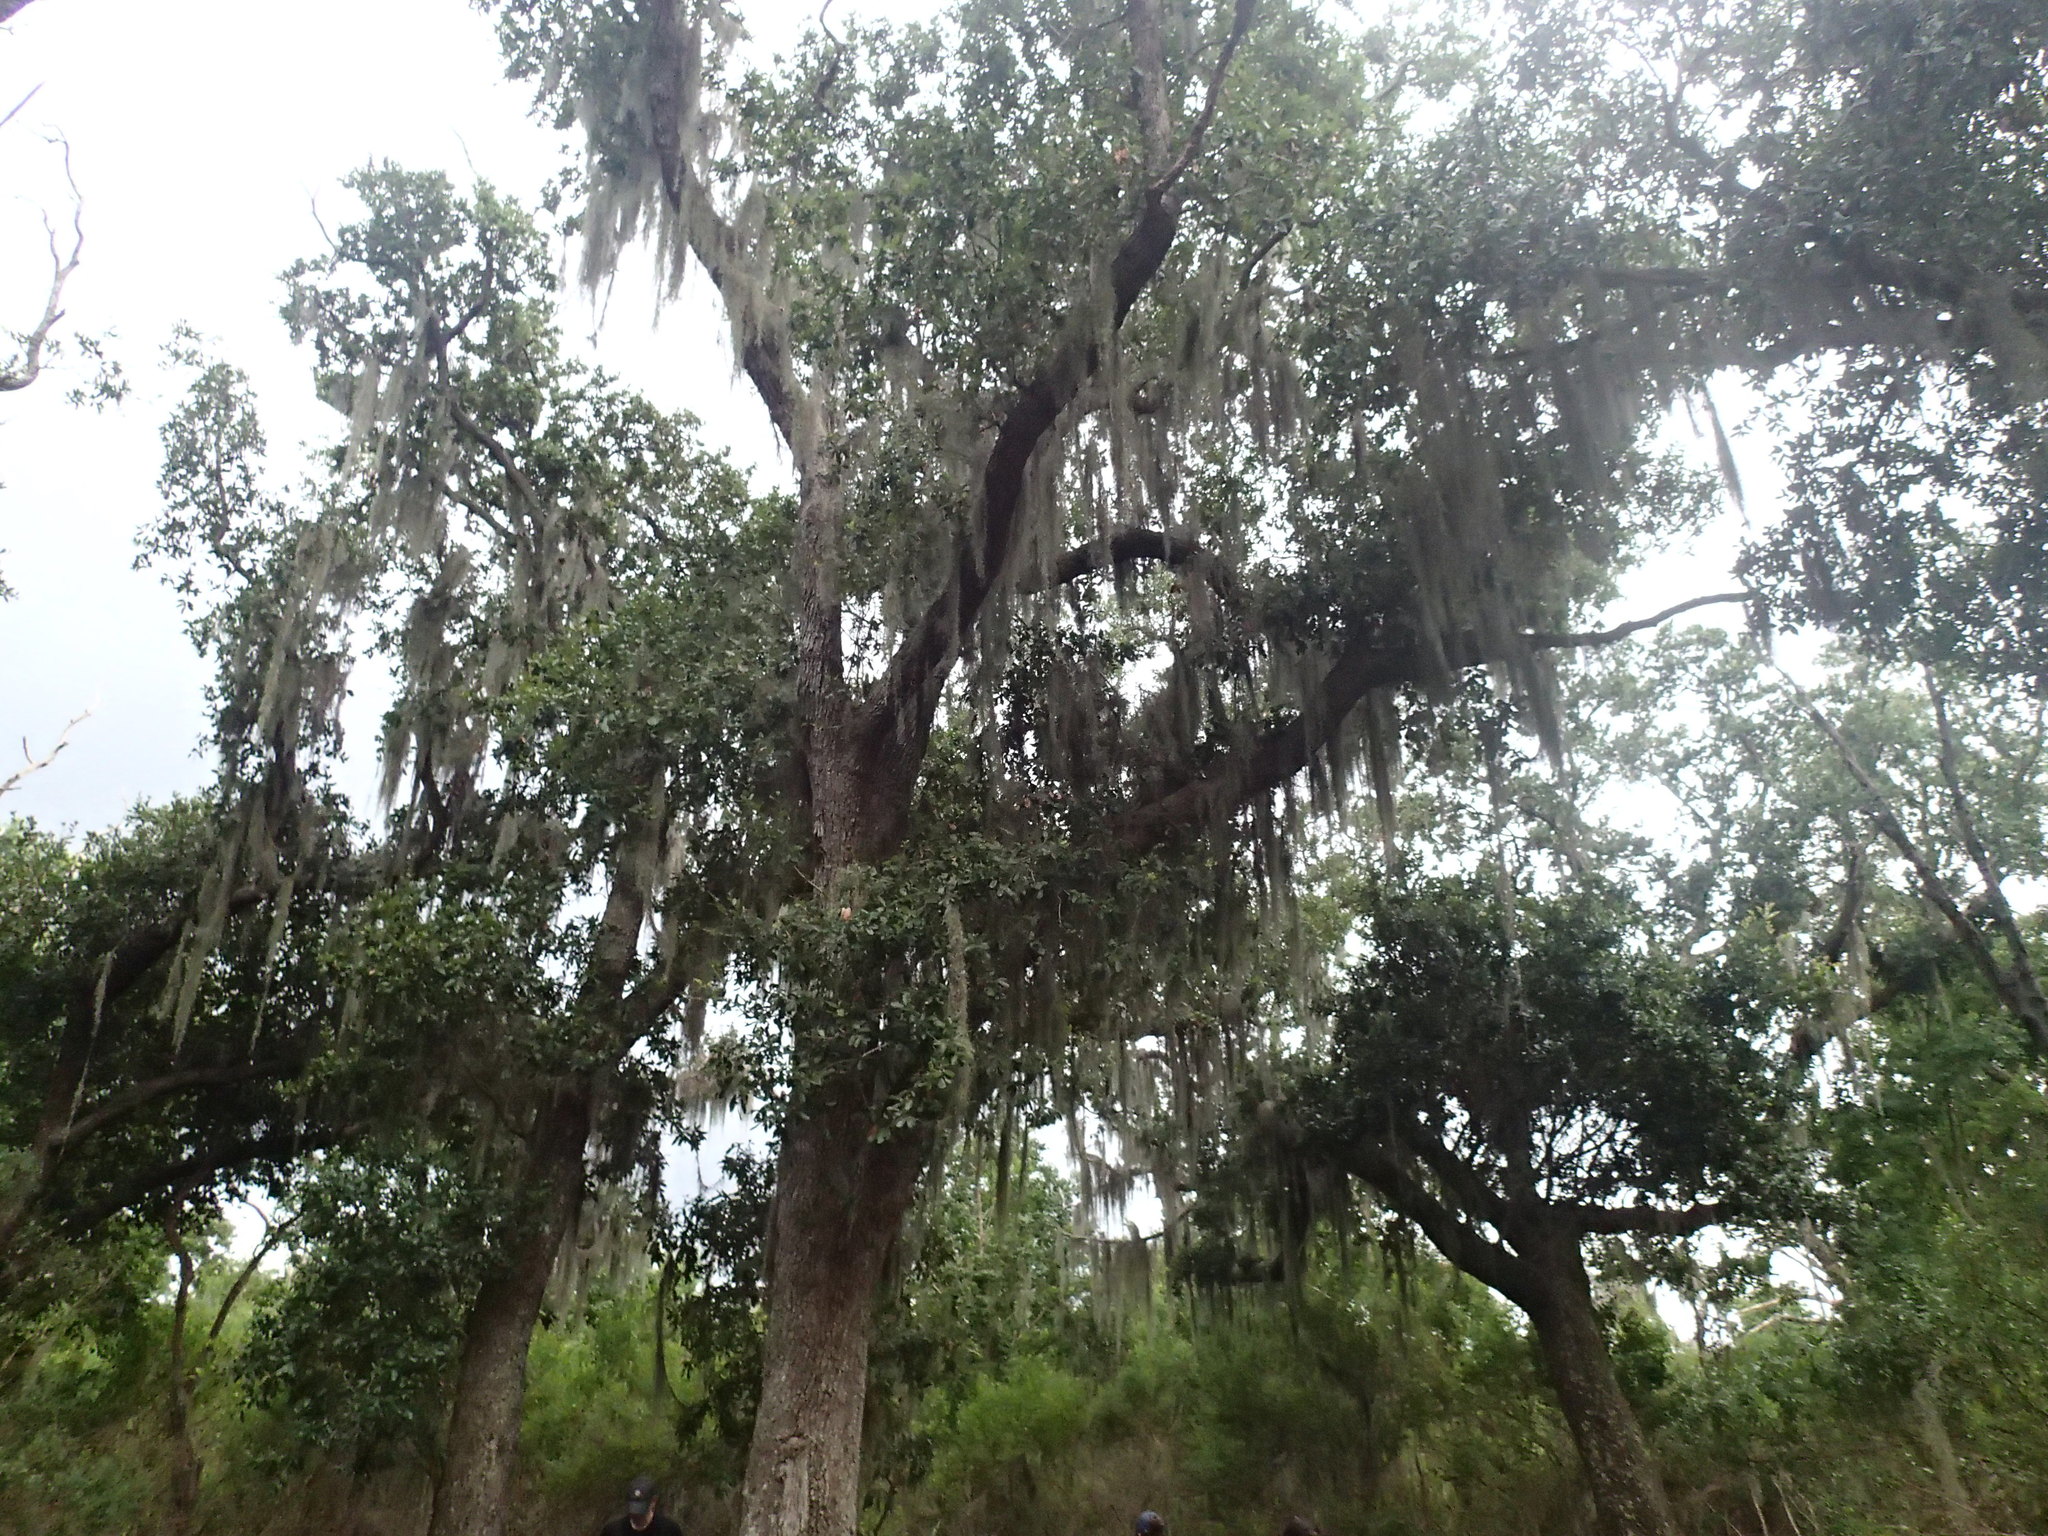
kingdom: Plantae
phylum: Tracheophyta
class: Liliopsida
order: Poales
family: Bromeliaceae
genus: Tillandsia
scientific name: Tillandsia usneoides
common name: Spanish moss
